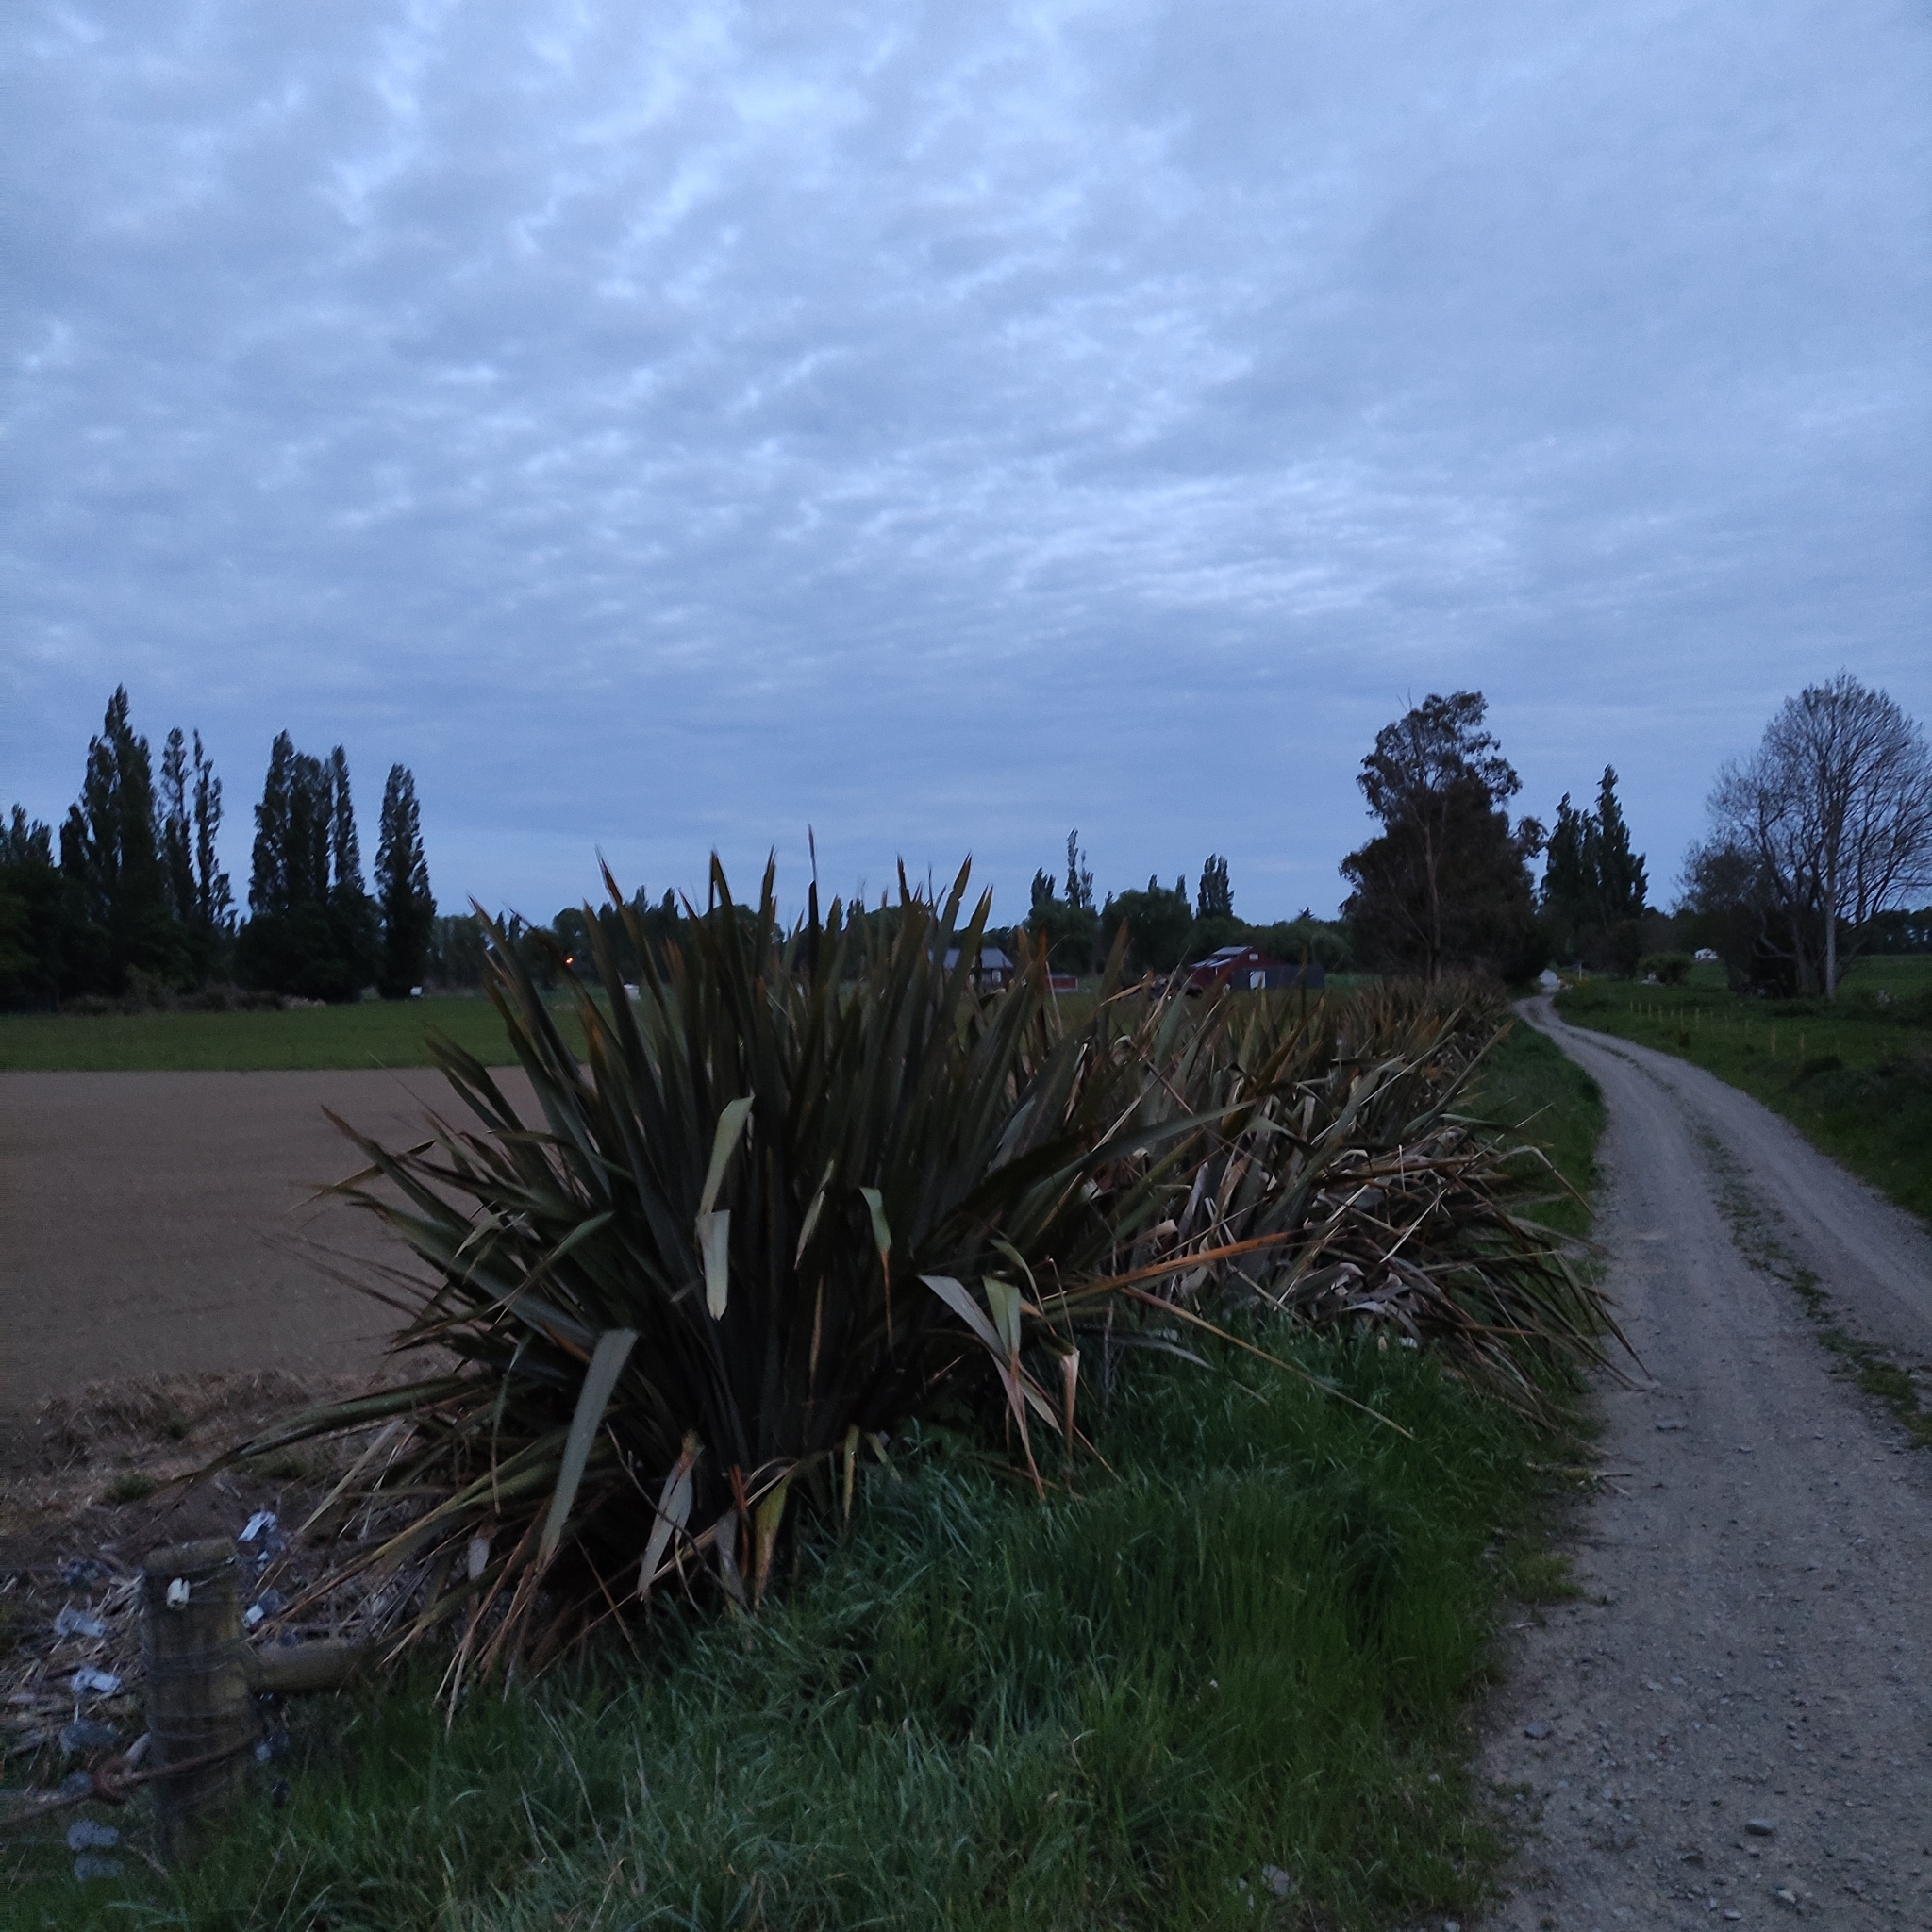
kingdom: Plantae
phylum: Tracheophyta
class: Liliopsida
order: Asparagales
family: Asphodelaceae
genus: Phormium
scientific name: Phormium tenax
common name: New zealand flax
